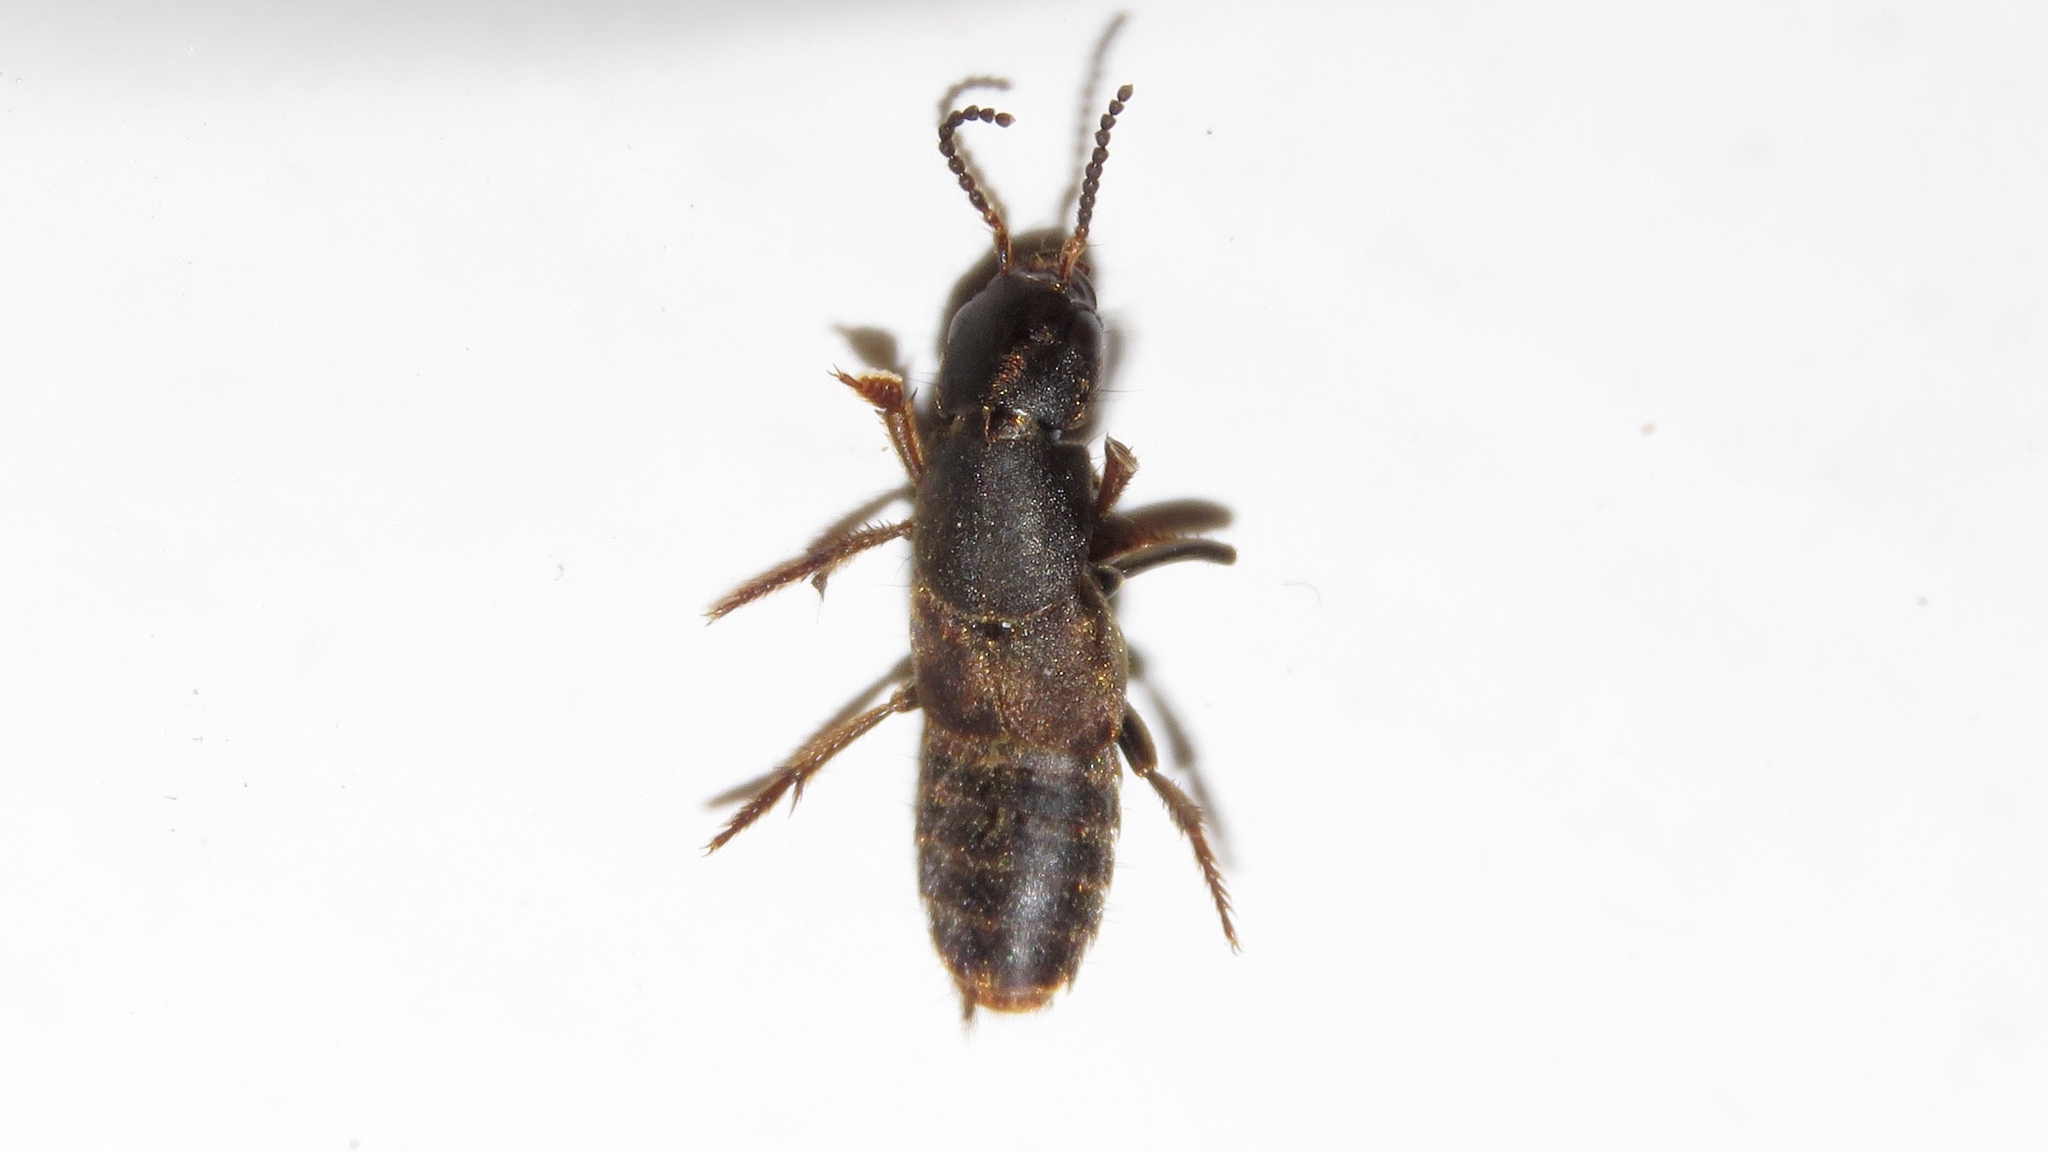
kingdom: Animalia
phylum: Arthropoda
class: Insecta
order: Coleoptera
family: Staphylinidae
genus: Platydracus
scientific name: Platydracus mysticus
